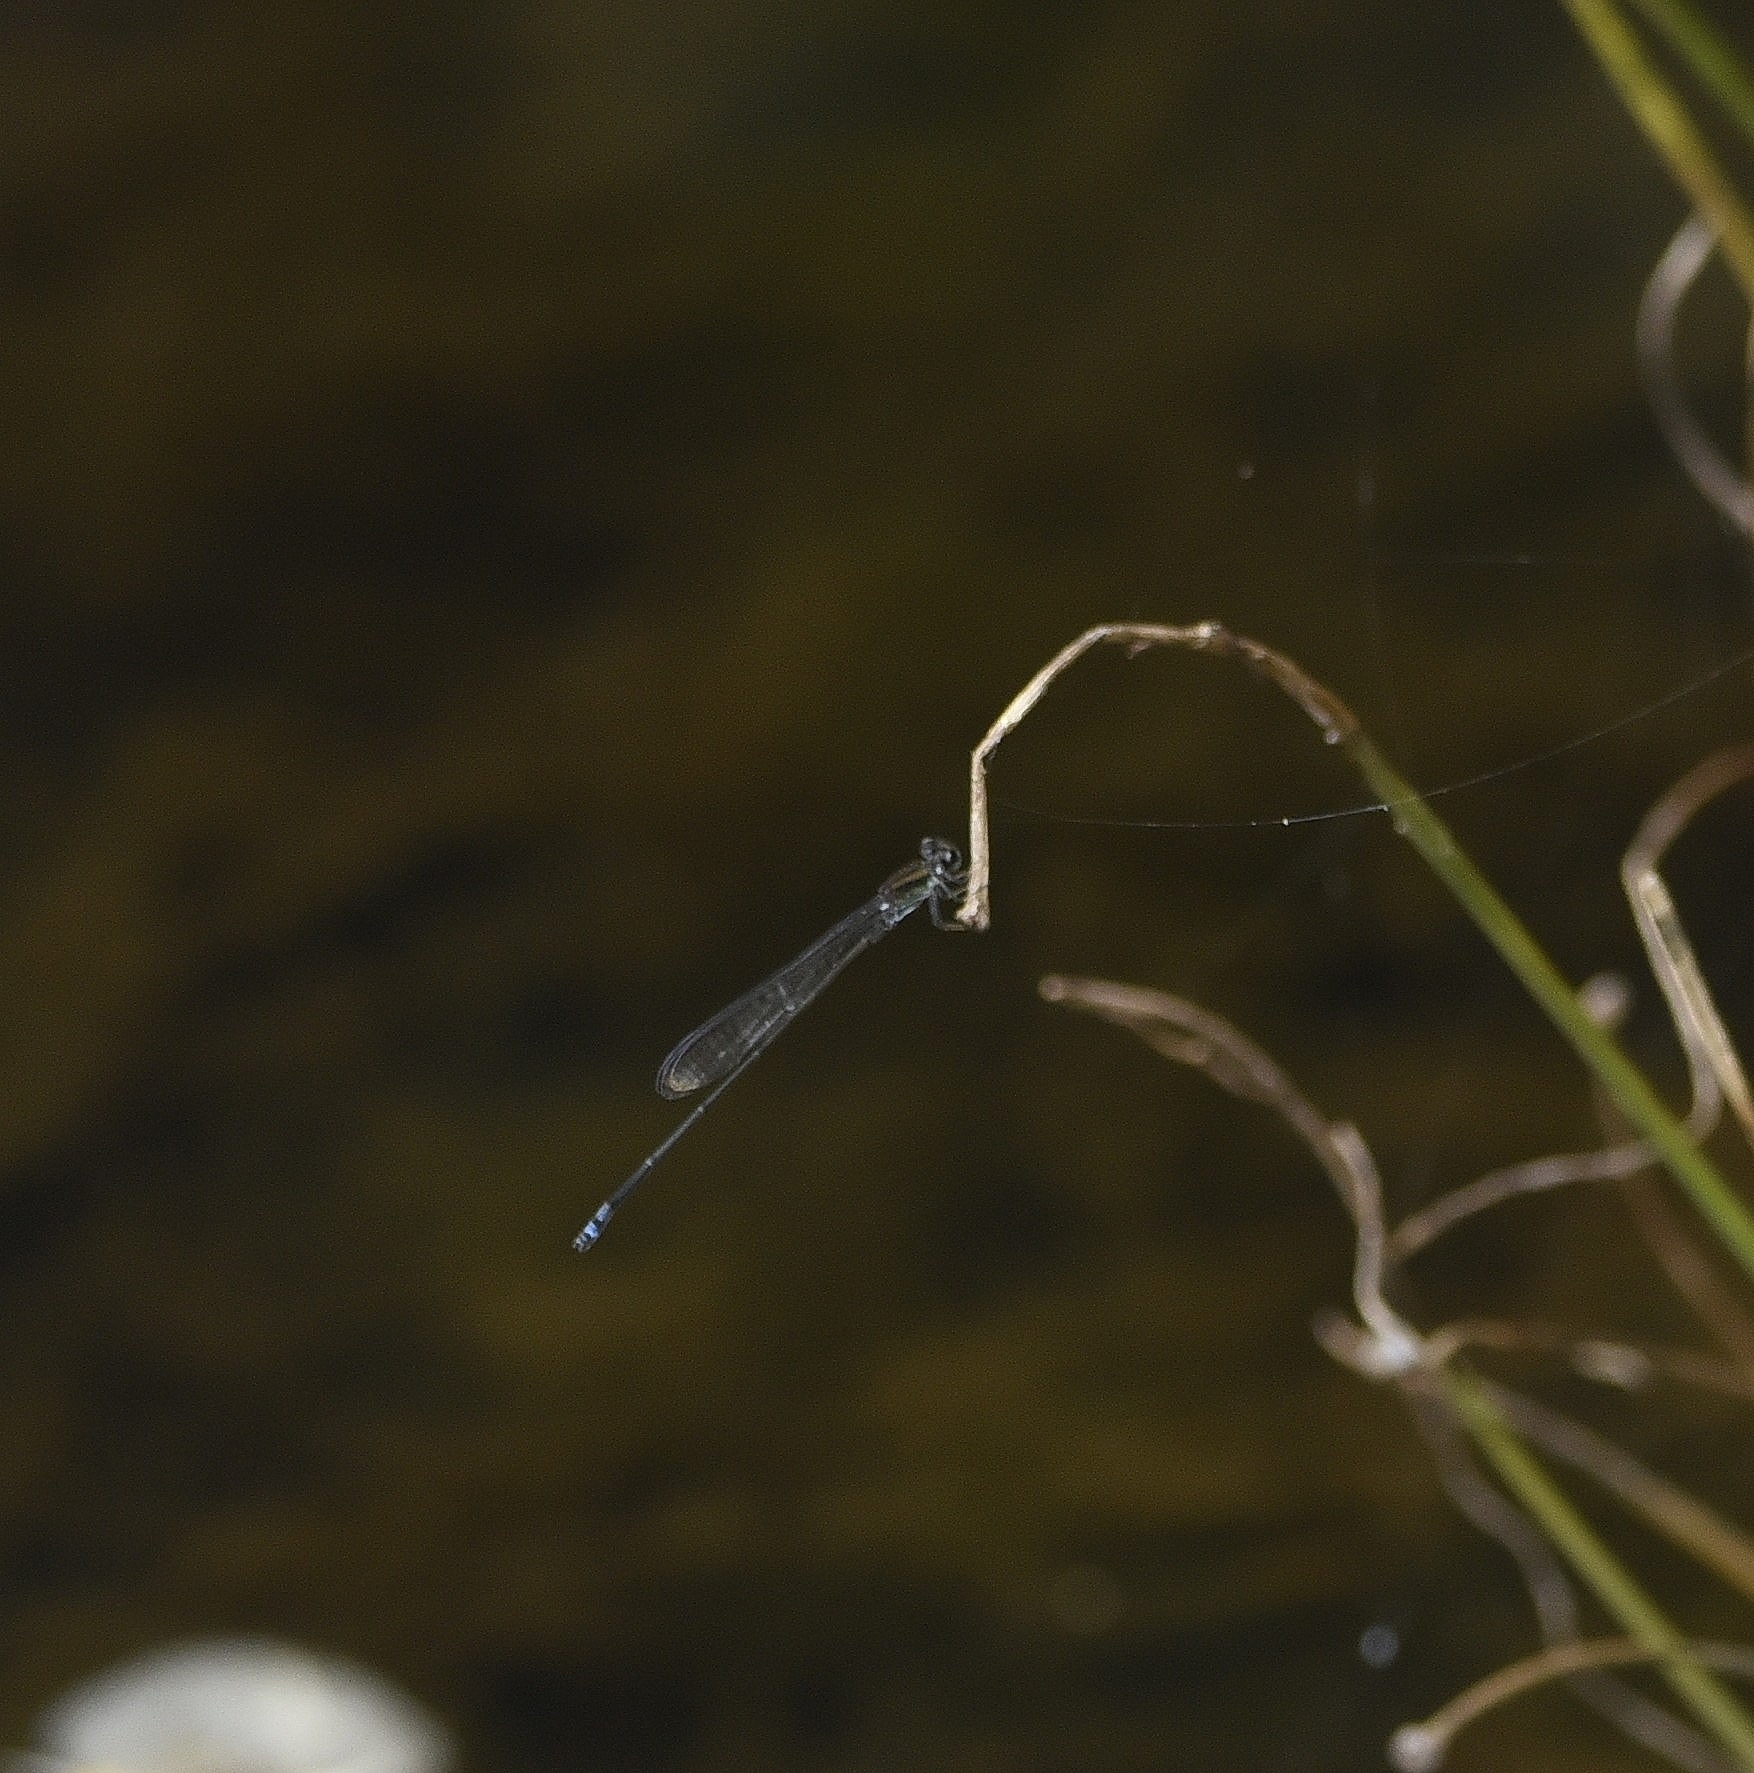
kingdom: Animalia
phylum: Arthropoda
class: Insecta
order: Odonata
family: Coenagrionidae
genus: Pseudagrion
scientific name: Pseudagrion indicum
